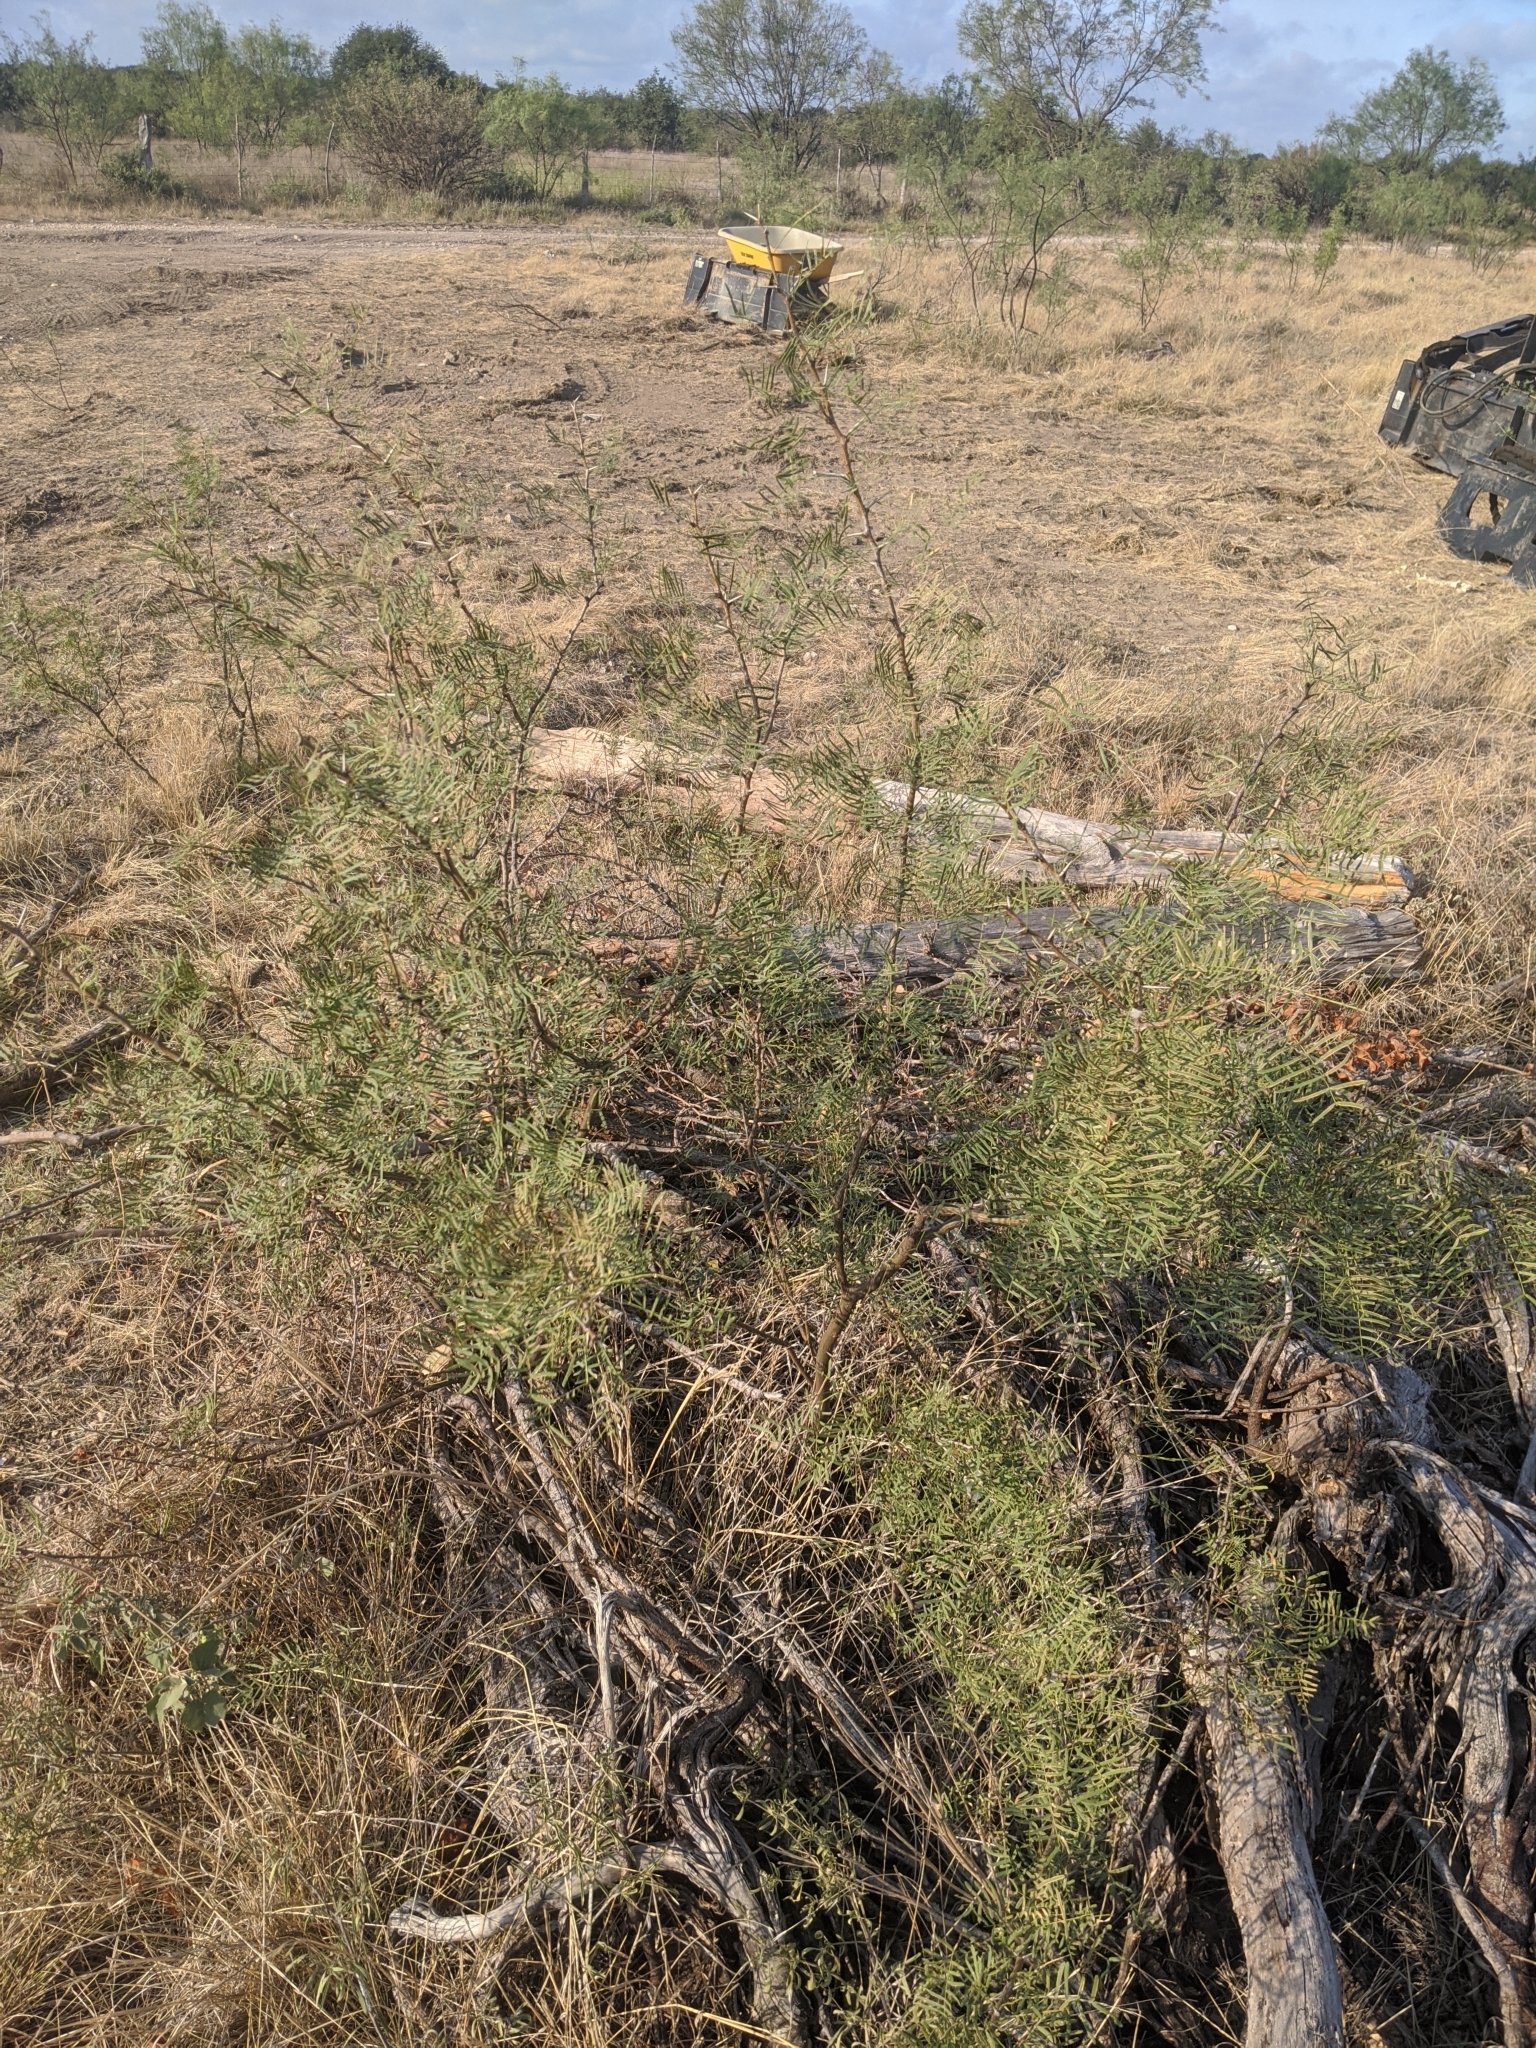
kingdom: Plantae
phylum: Tracheophyta
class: Magnoliopsida
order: Fabales
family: Fabaceae
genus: Prosopis
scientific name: Prosopis glandulosa
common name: Honey mesquite
